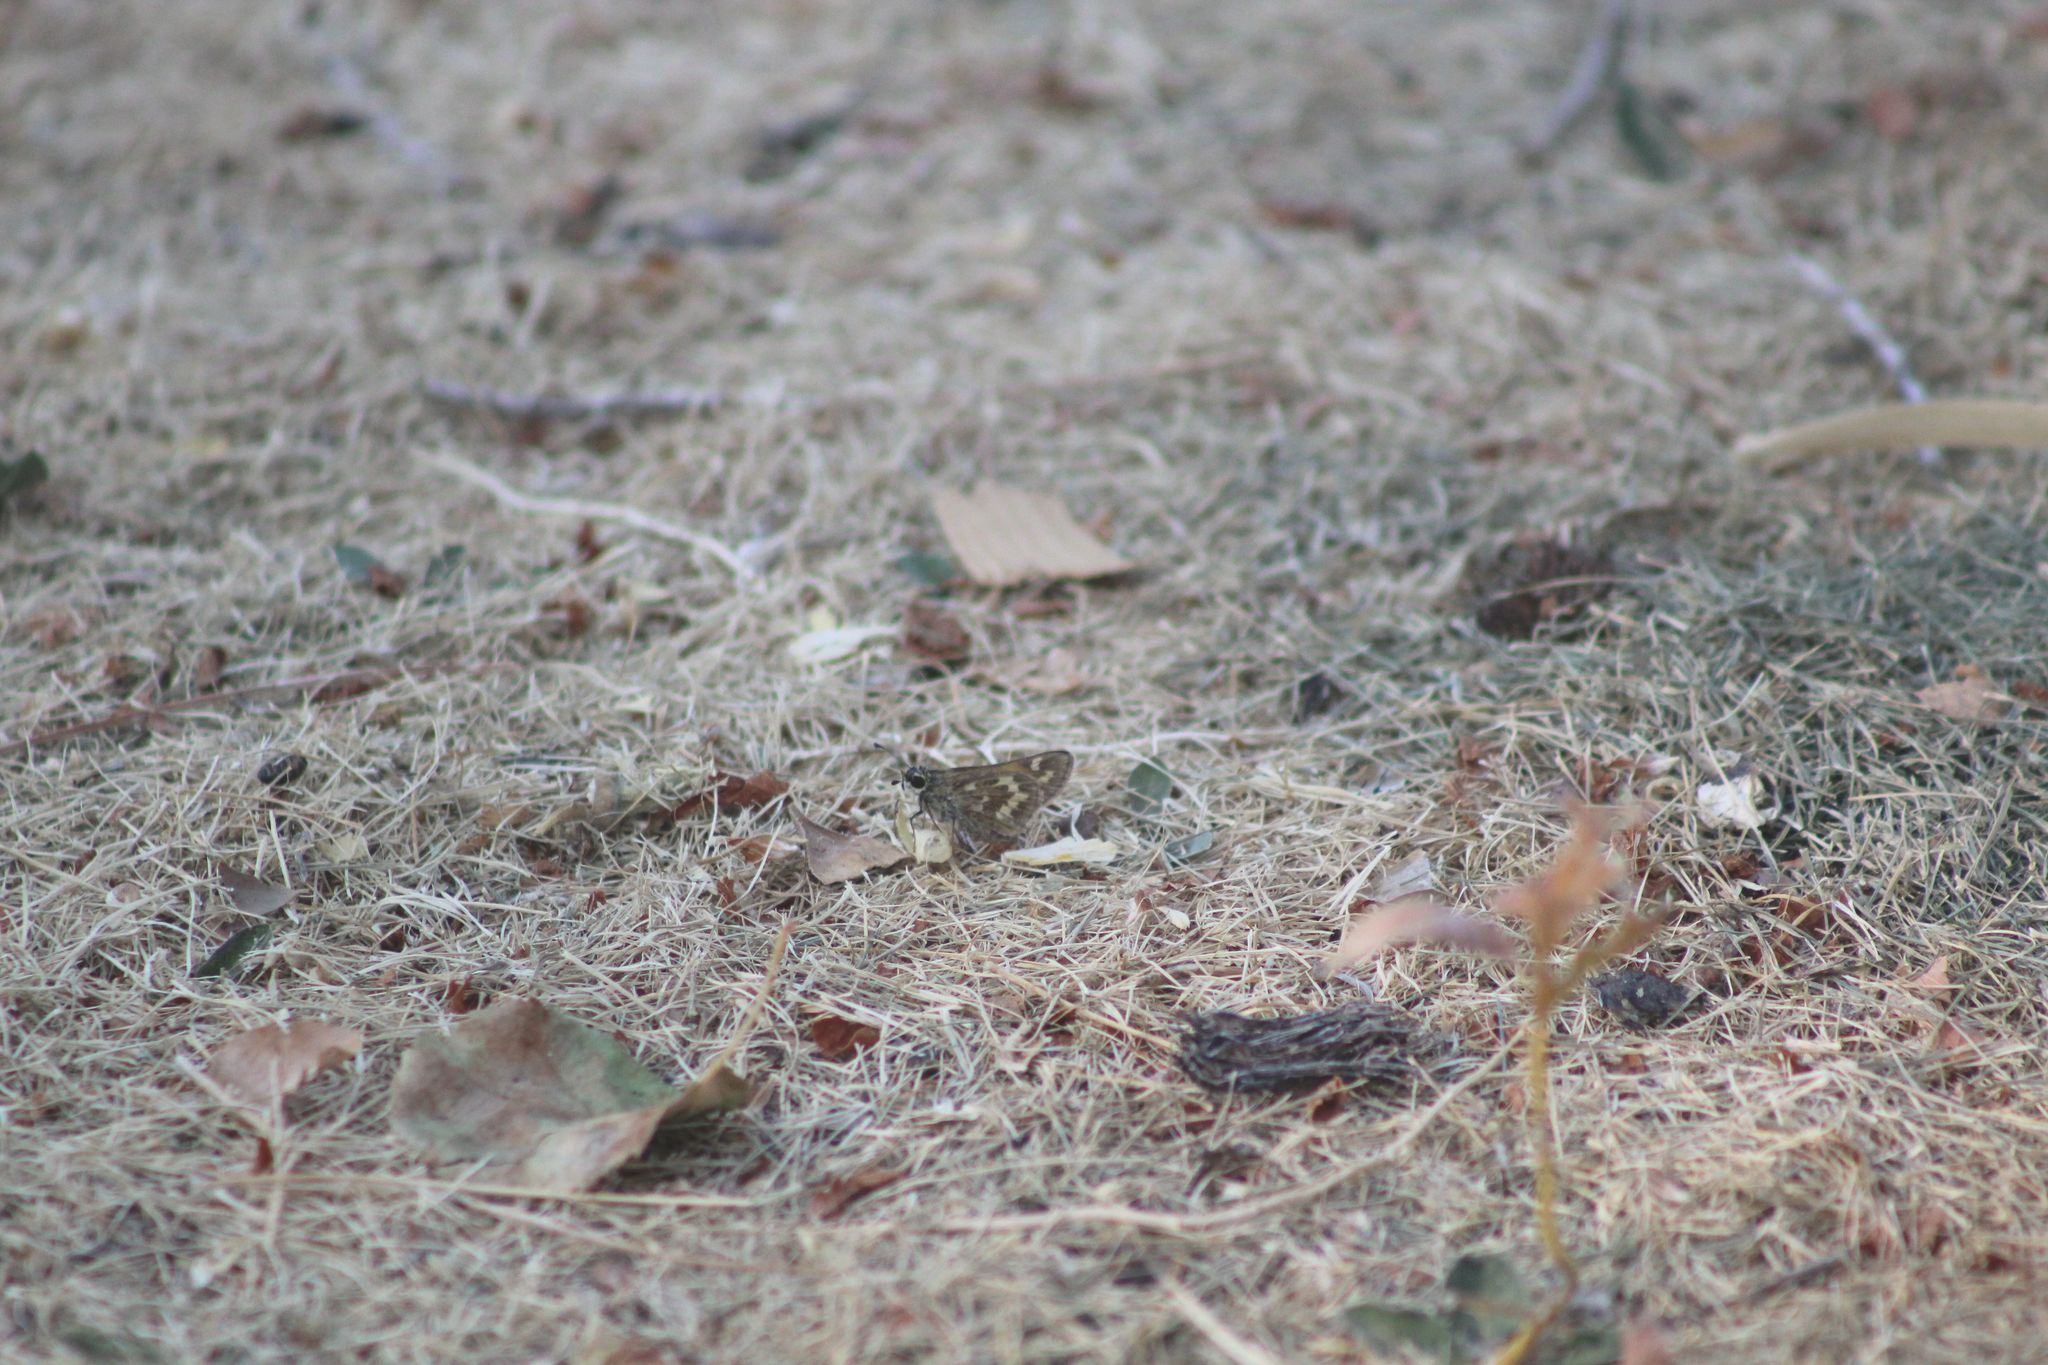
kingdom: Animalia
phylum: Arthropoda
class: Insecta
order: Lepidoptera
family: Hesperiidae
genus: Atalopedes
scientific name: Atalopedes campestris
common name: Sachem
